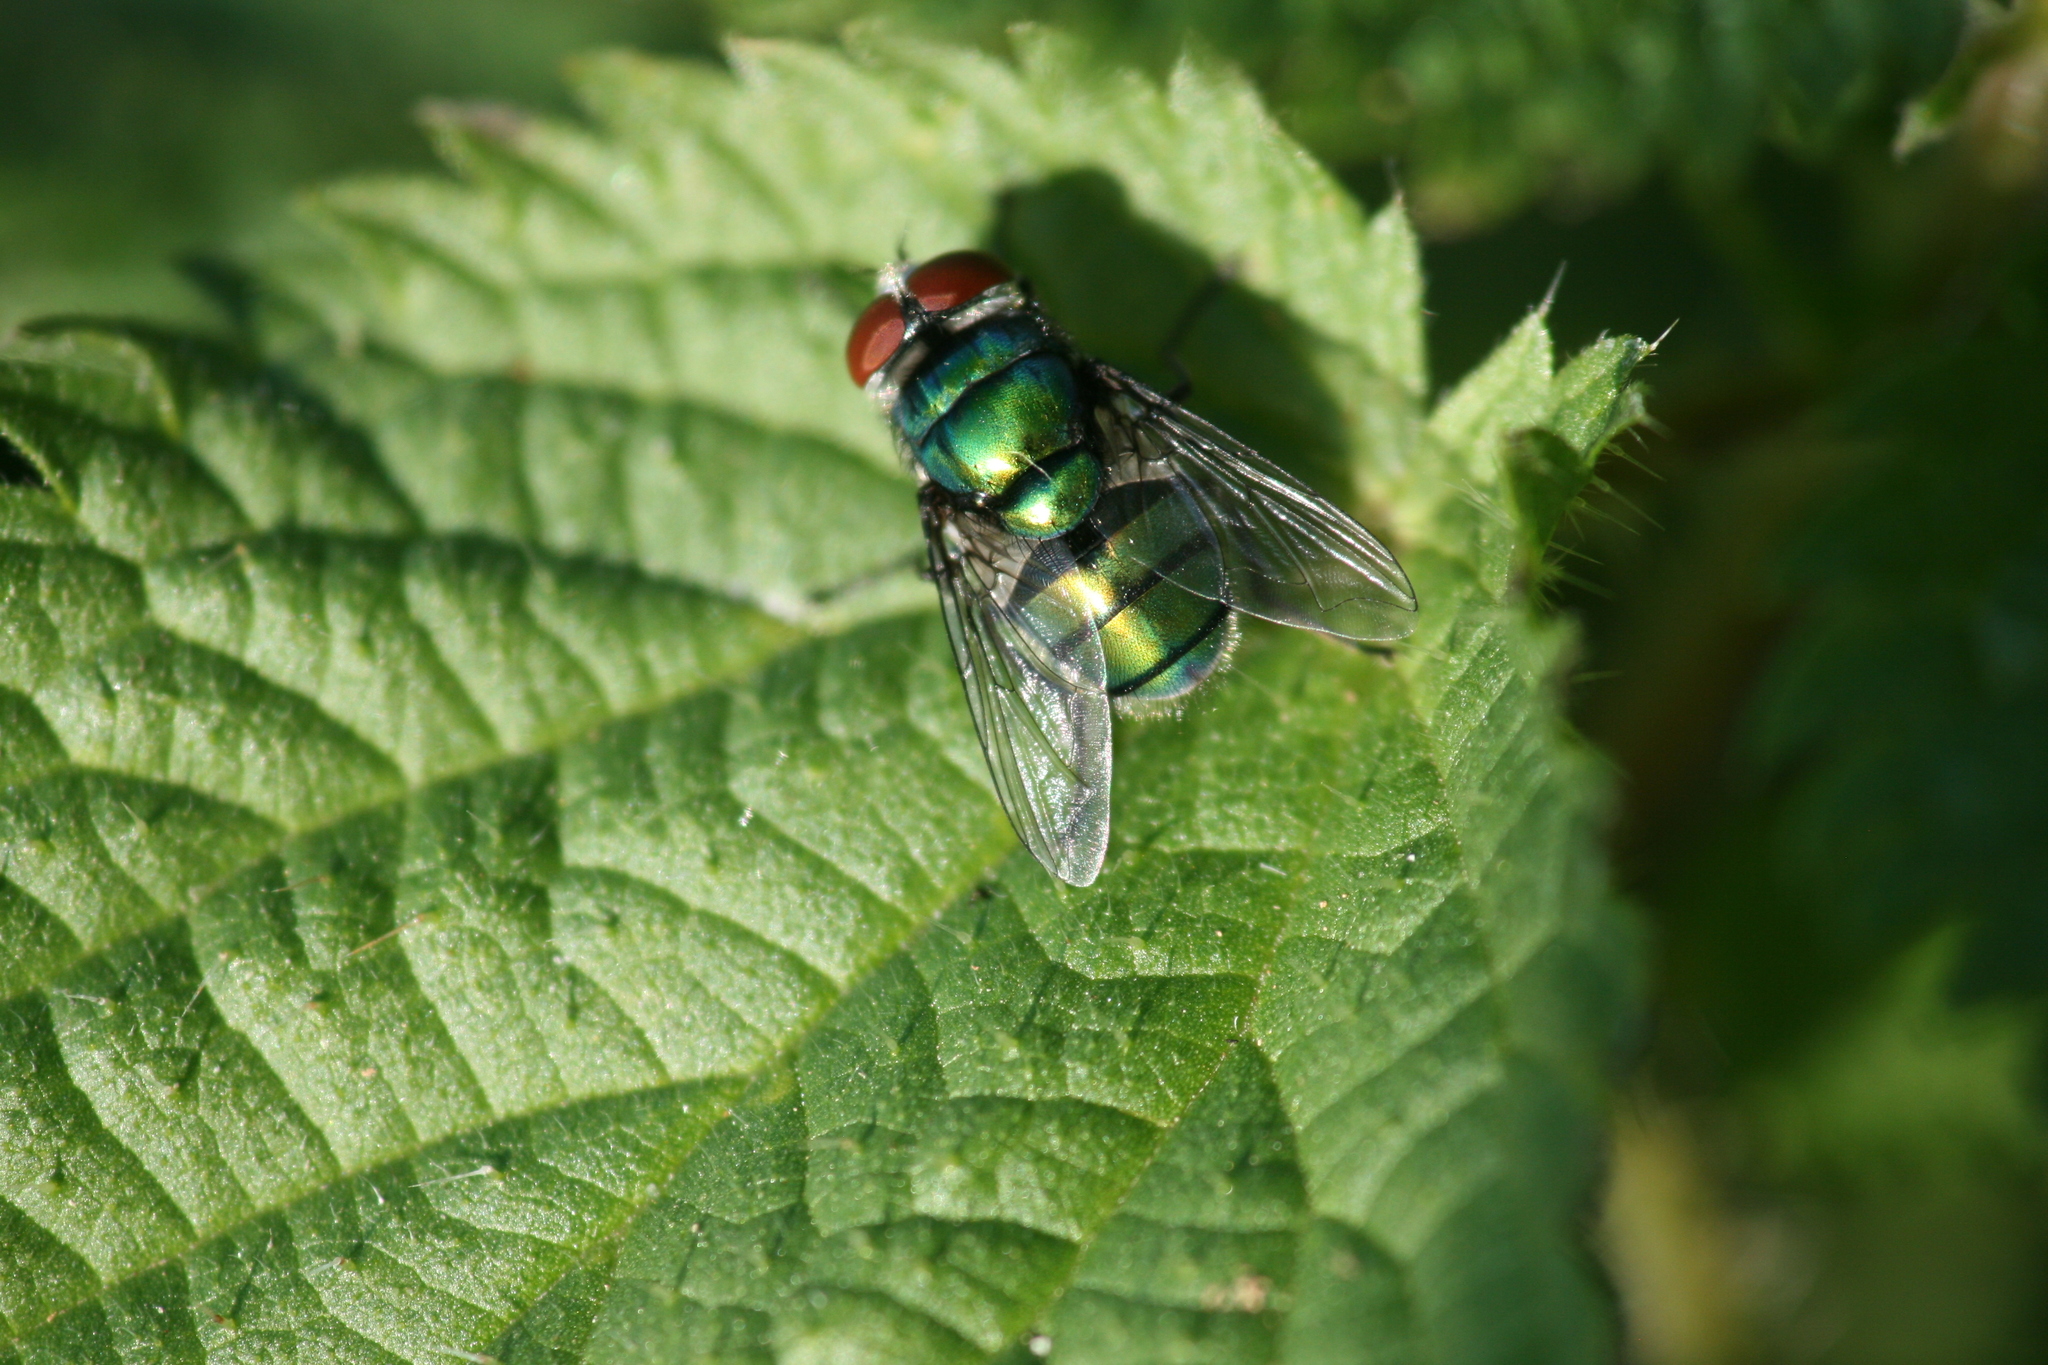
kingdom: Animalia
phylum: Arthropoda
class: Insecta
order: Diptera
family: Calliphoridae
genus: Chrysomya
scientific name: Chrysomya albiceps
